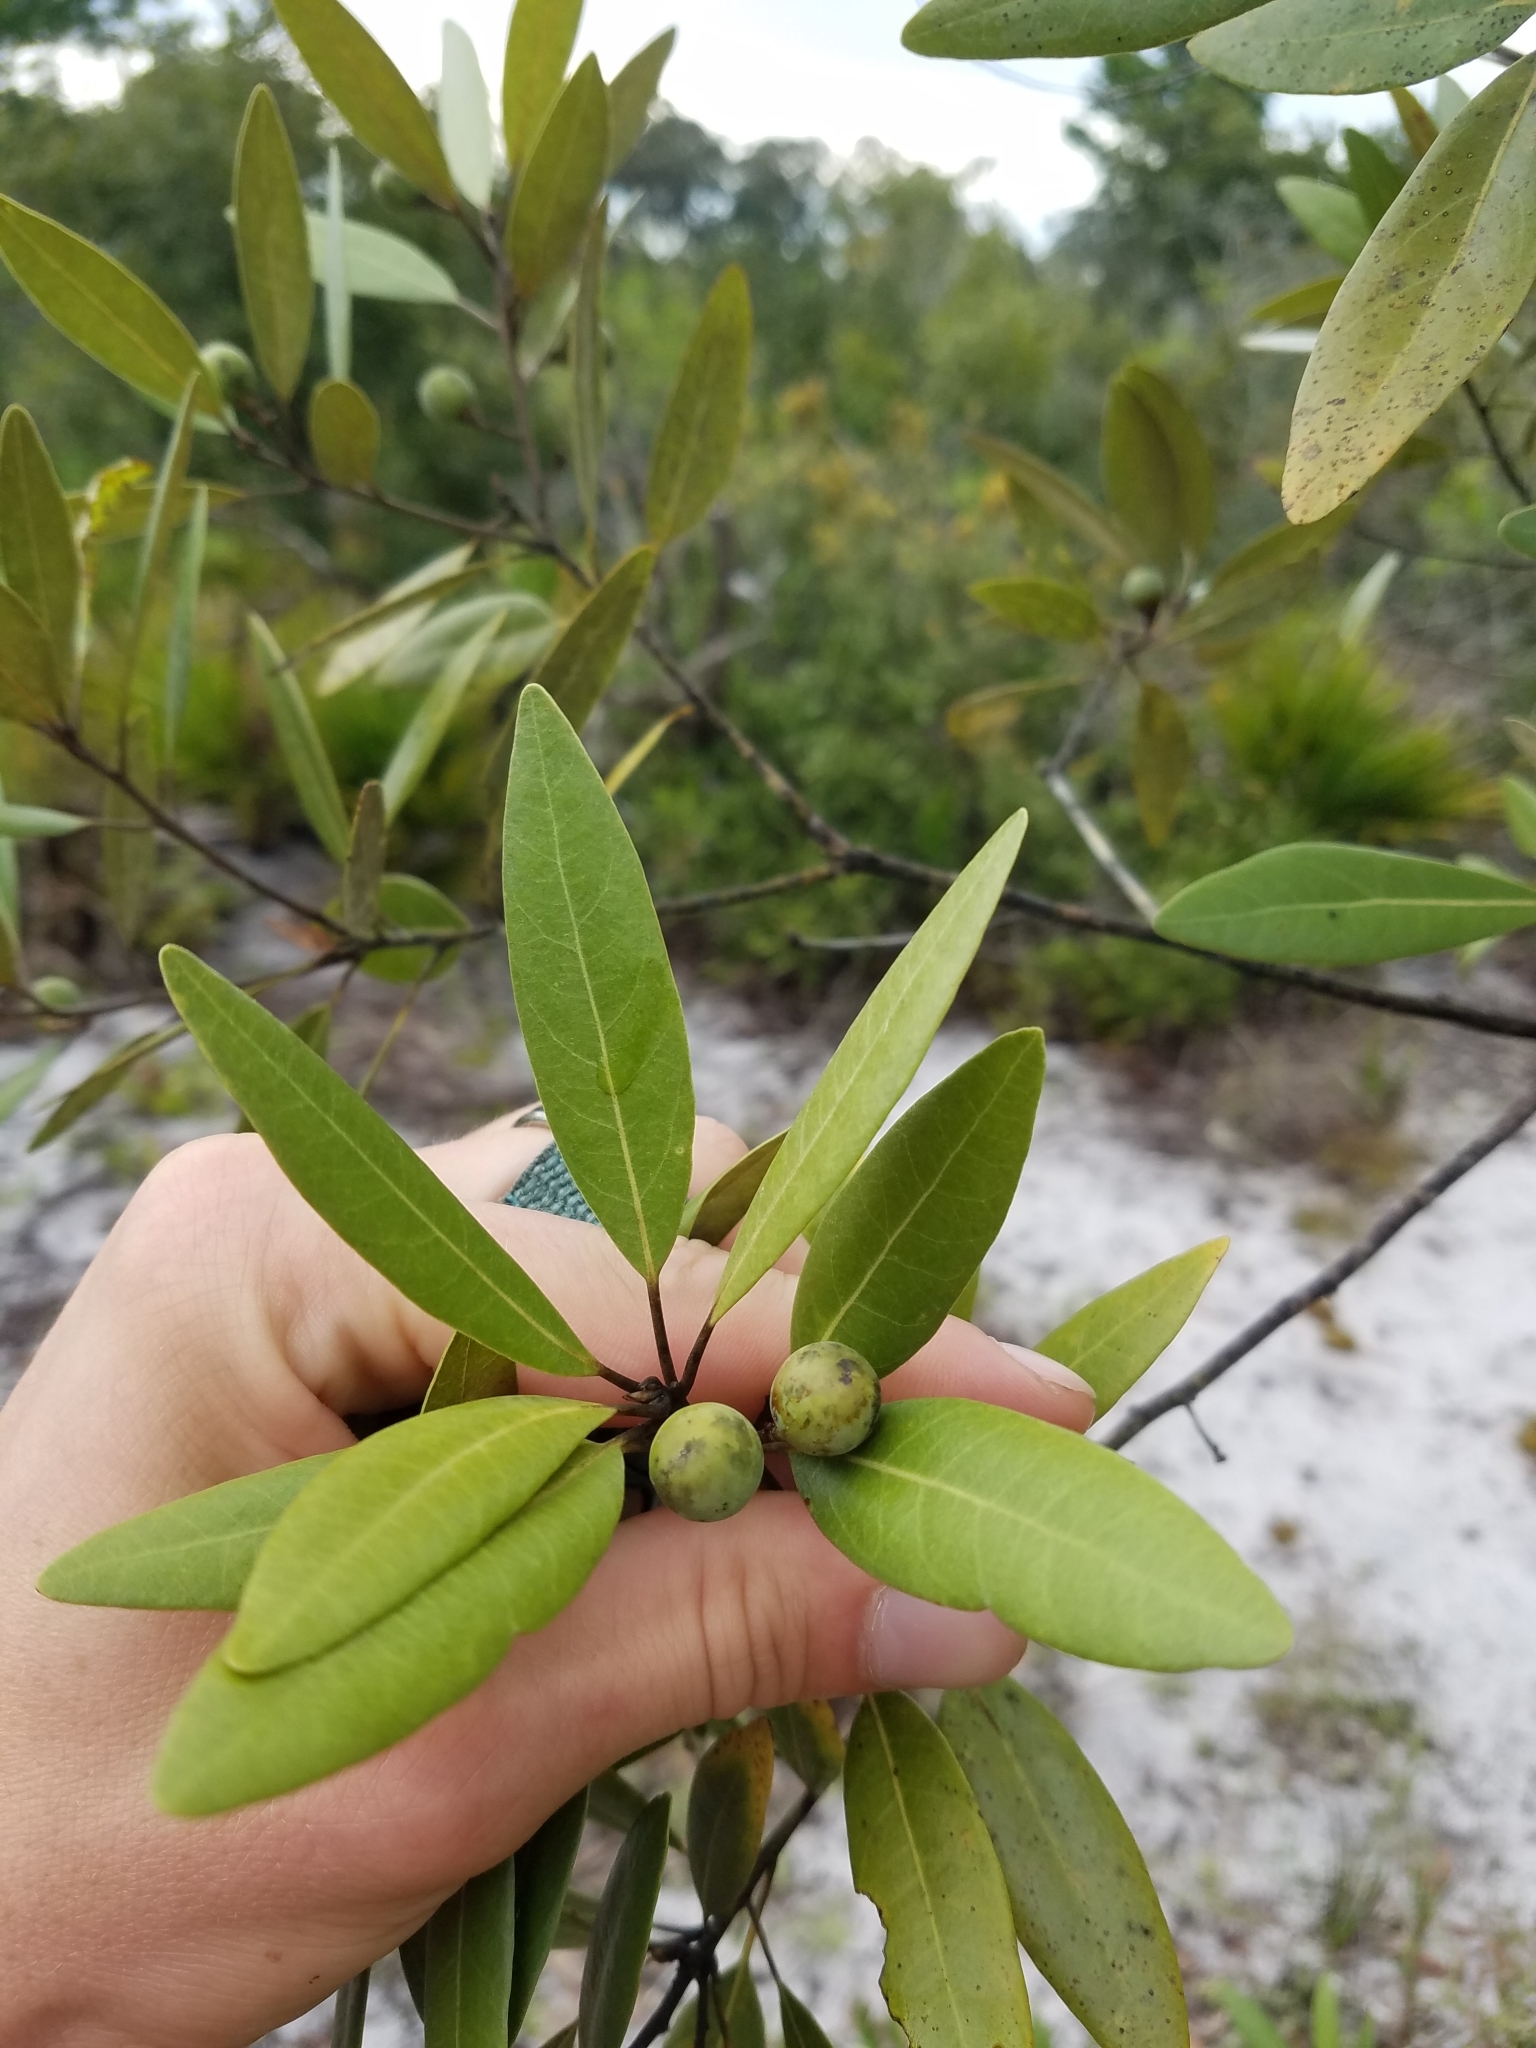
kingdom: Plantae
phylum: Tracheophyta
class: Magnoliopsida
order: Laurales
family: Lauraceae
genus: Persea
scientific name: Persea humilis
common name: Silkbay
